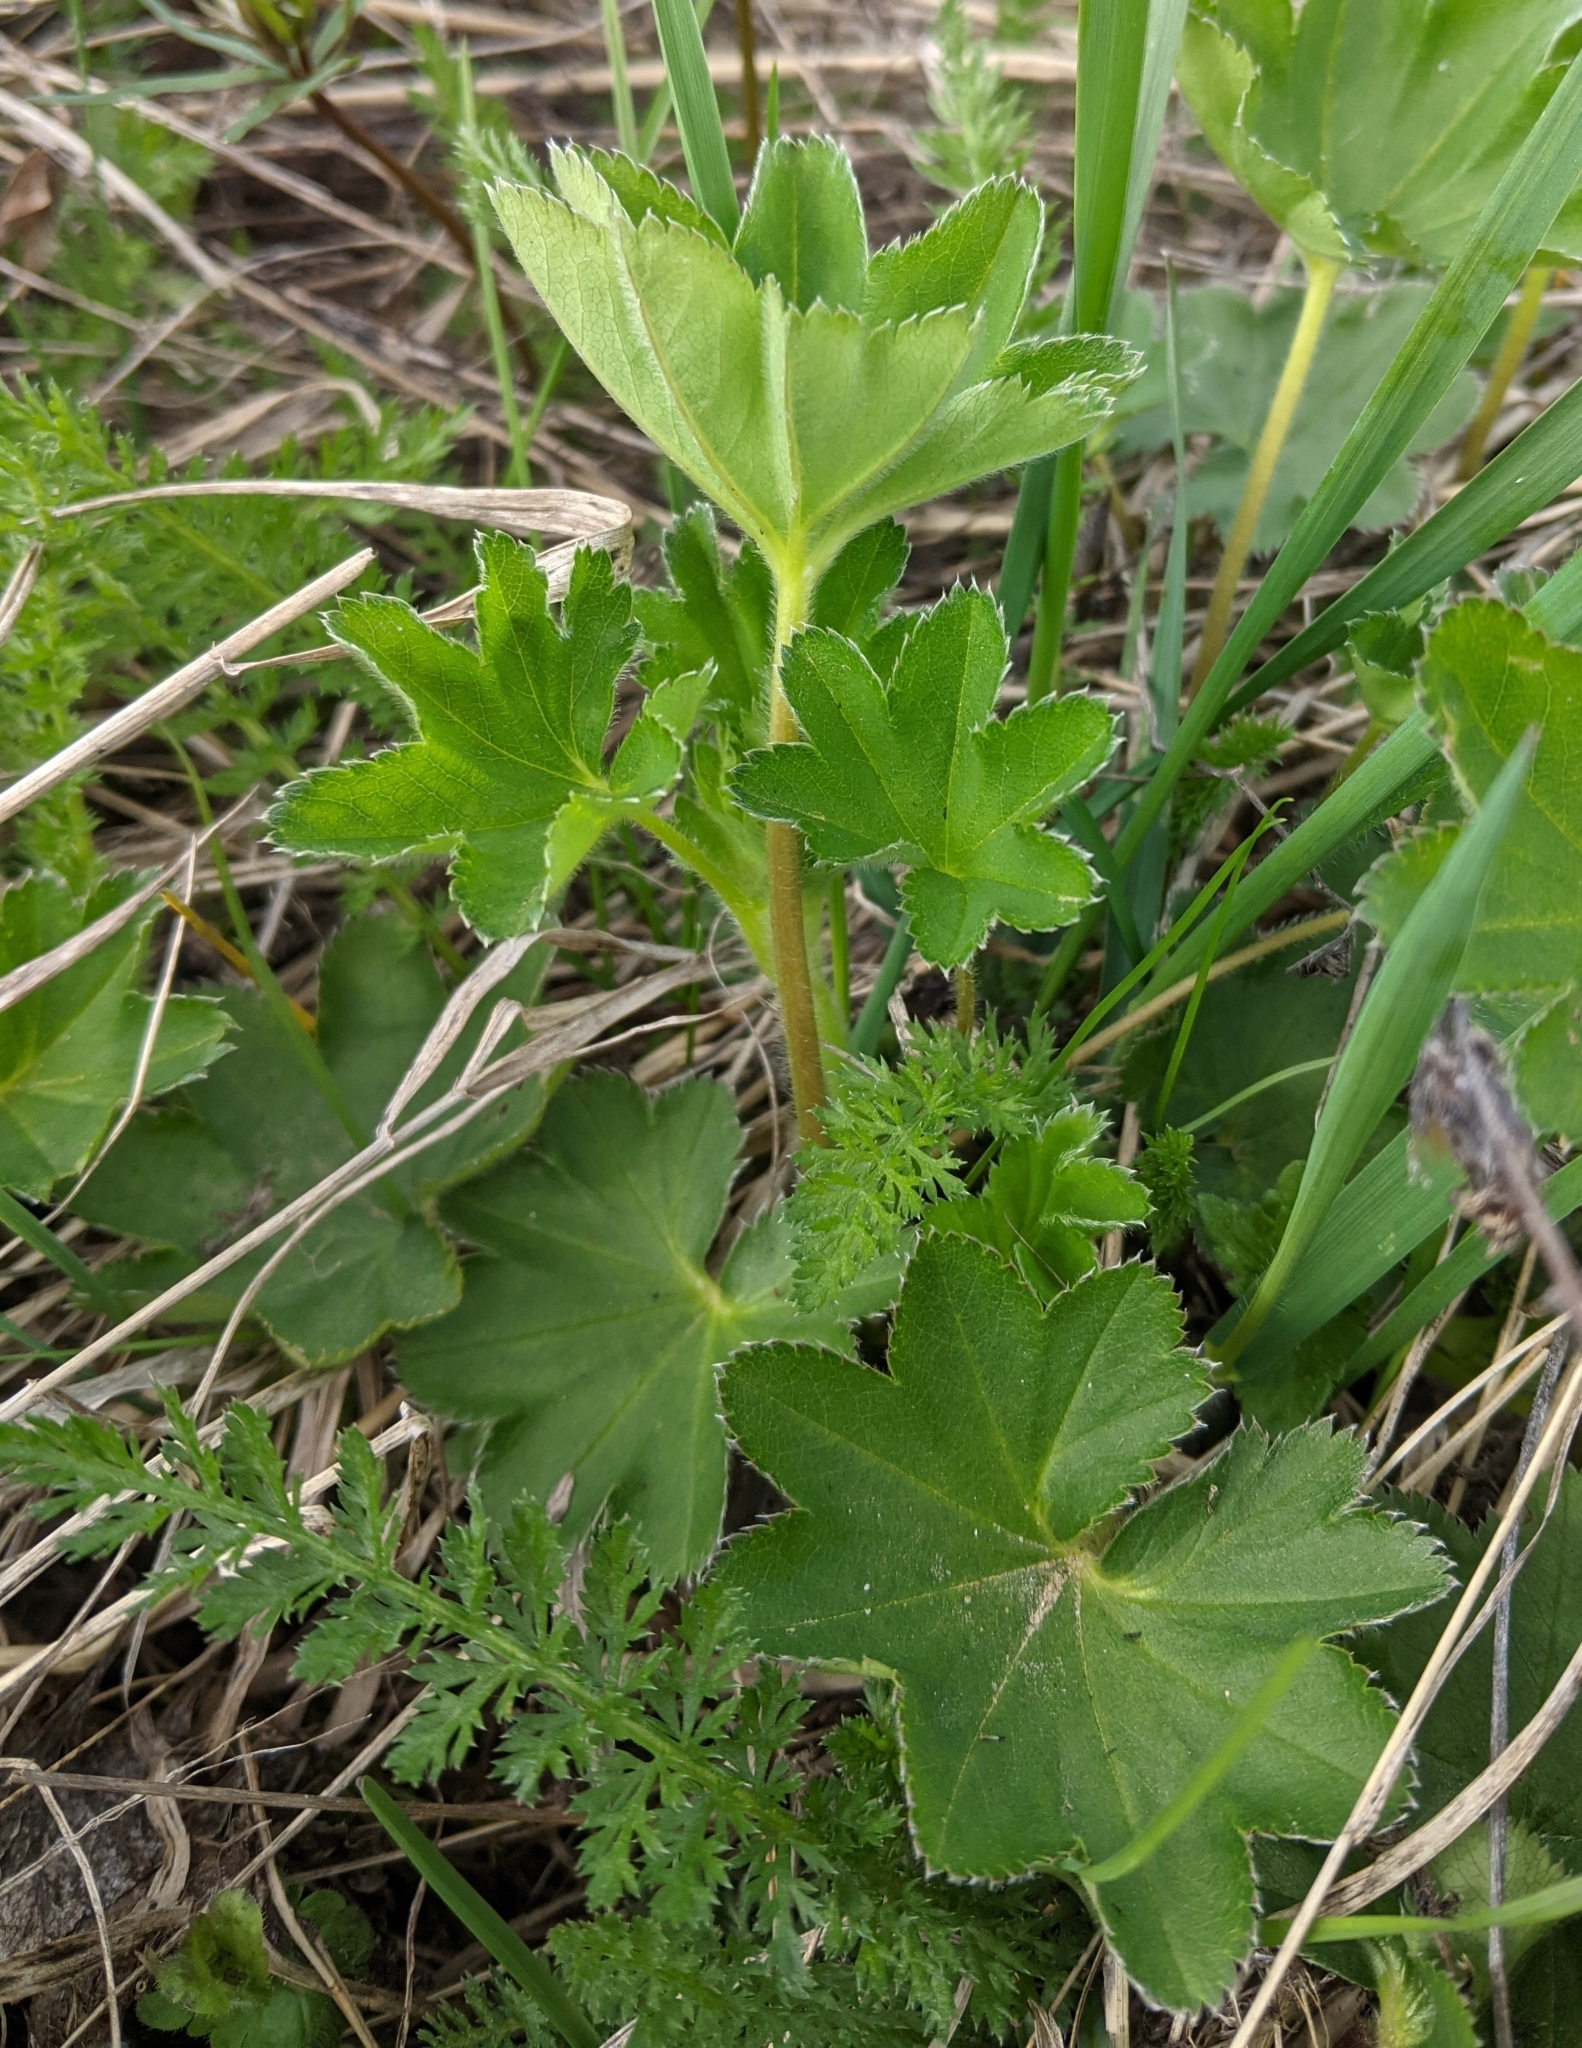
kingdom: Plantae
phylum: Tracheophyta
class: Magnoliopsida
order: Rosales
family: Rosaceae
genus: Alchemilla
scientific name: Alchemilla
